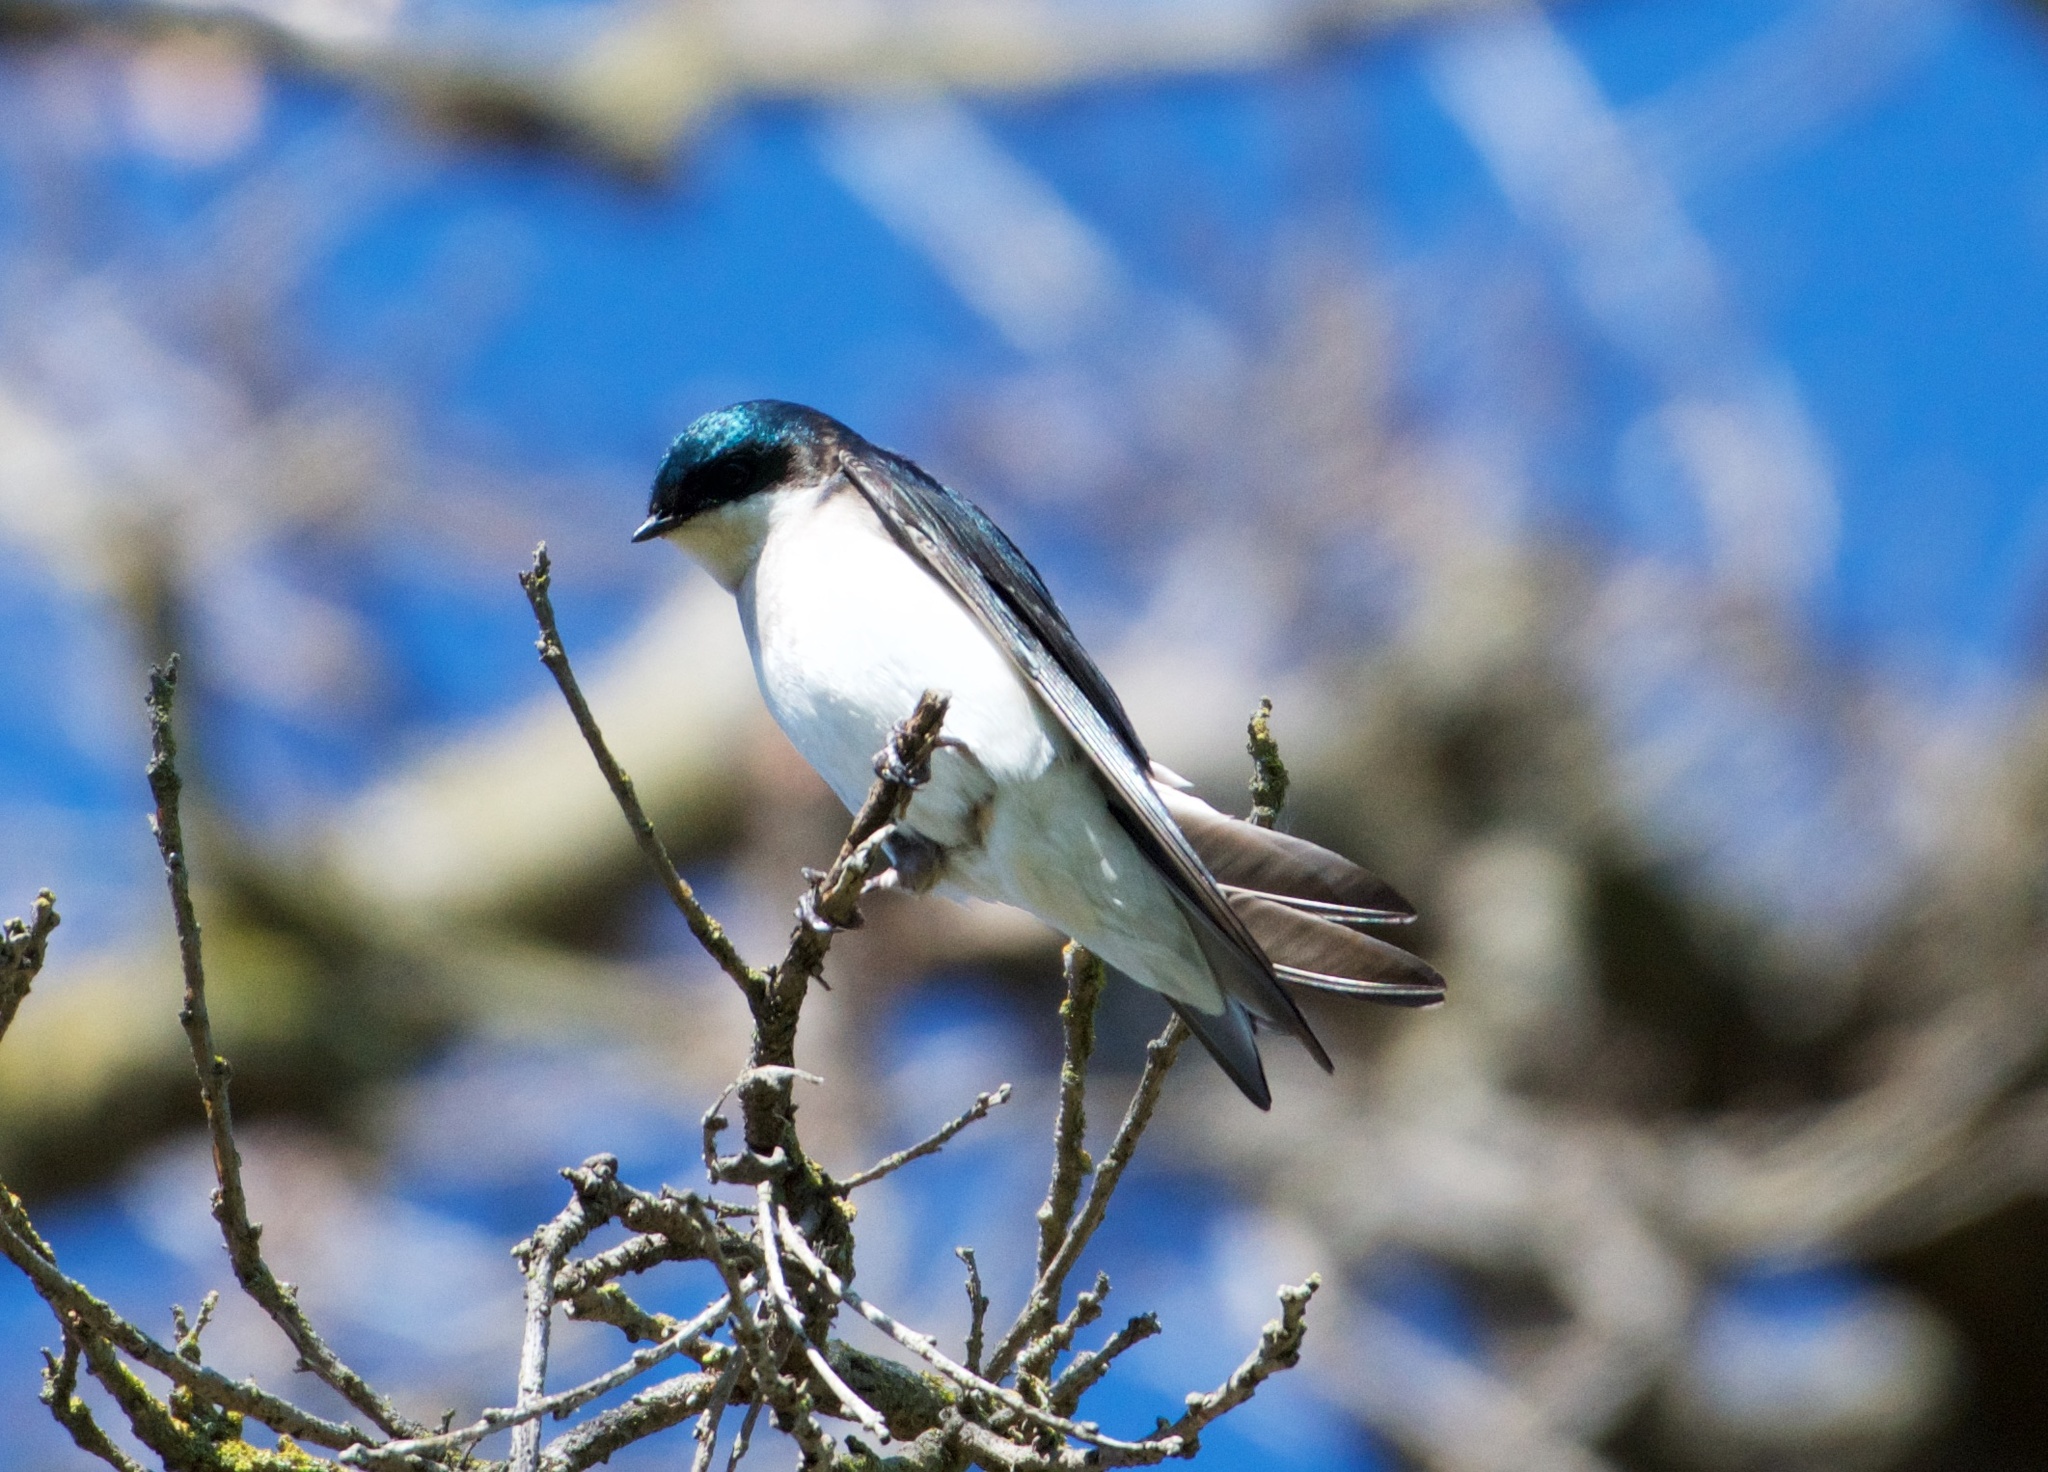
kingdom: Animalia
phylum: Chordata
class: Aves
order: Passeriformes
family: Hirundinidae
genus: Tachycineta
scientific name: Tachycineta bicolor
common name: Tree swallow
